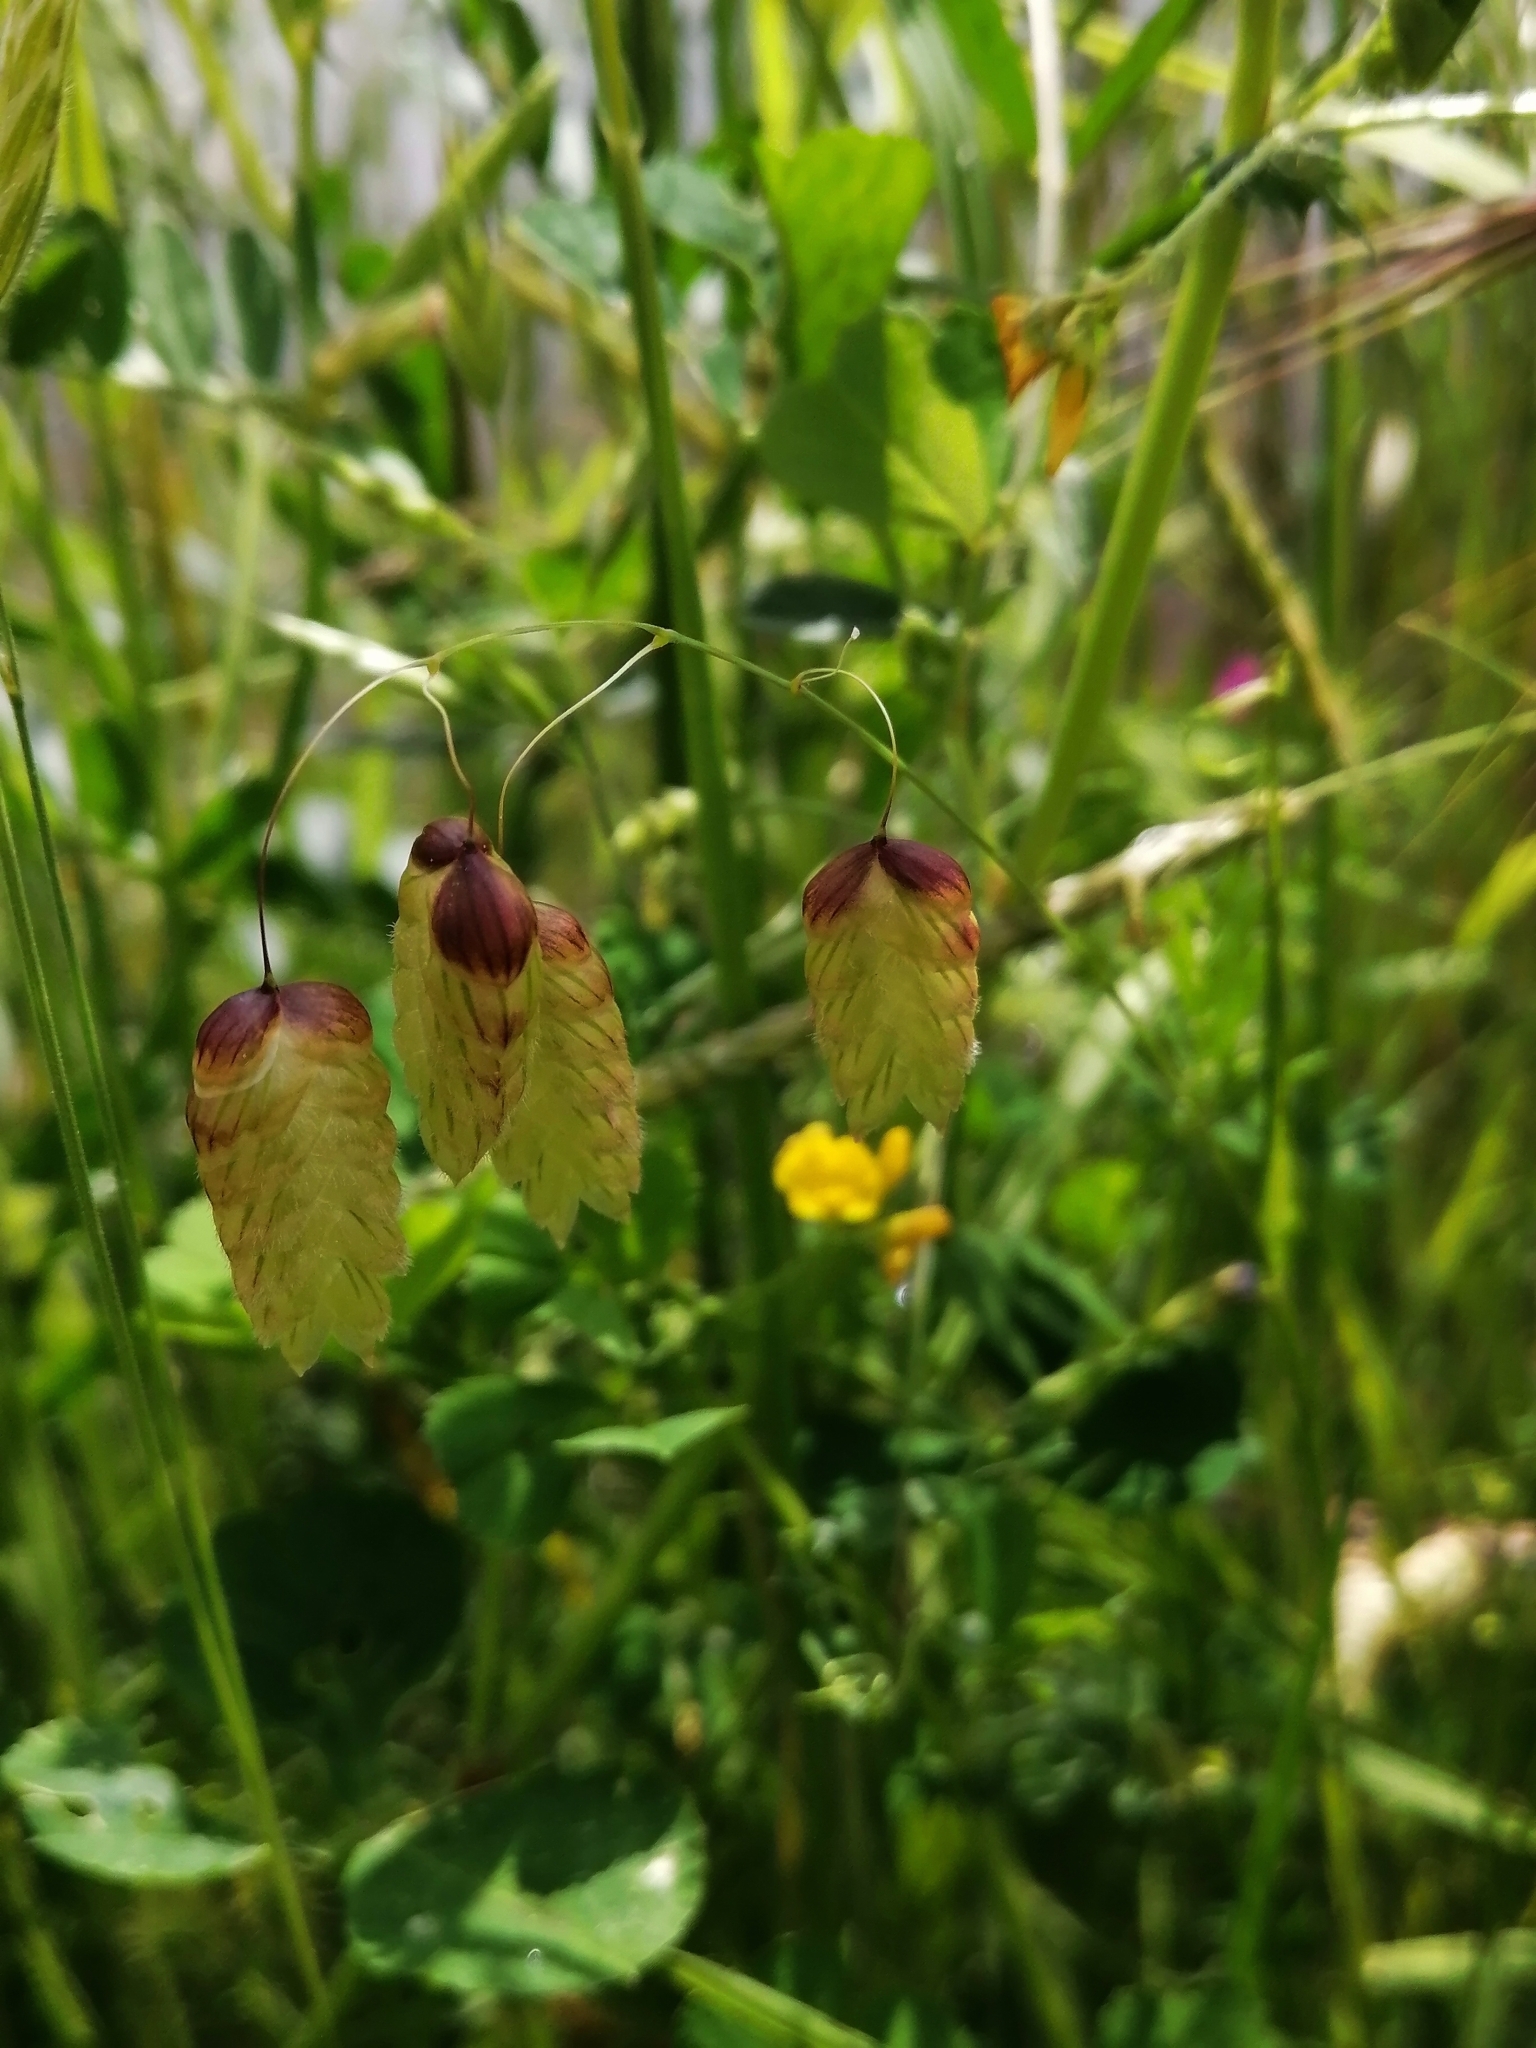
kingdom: Plantae
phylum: Tracheophyta
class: Liliopsida
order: Poales
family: Poaceae
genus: Briza
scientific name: Briza maxima
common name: Big quakinggrass
